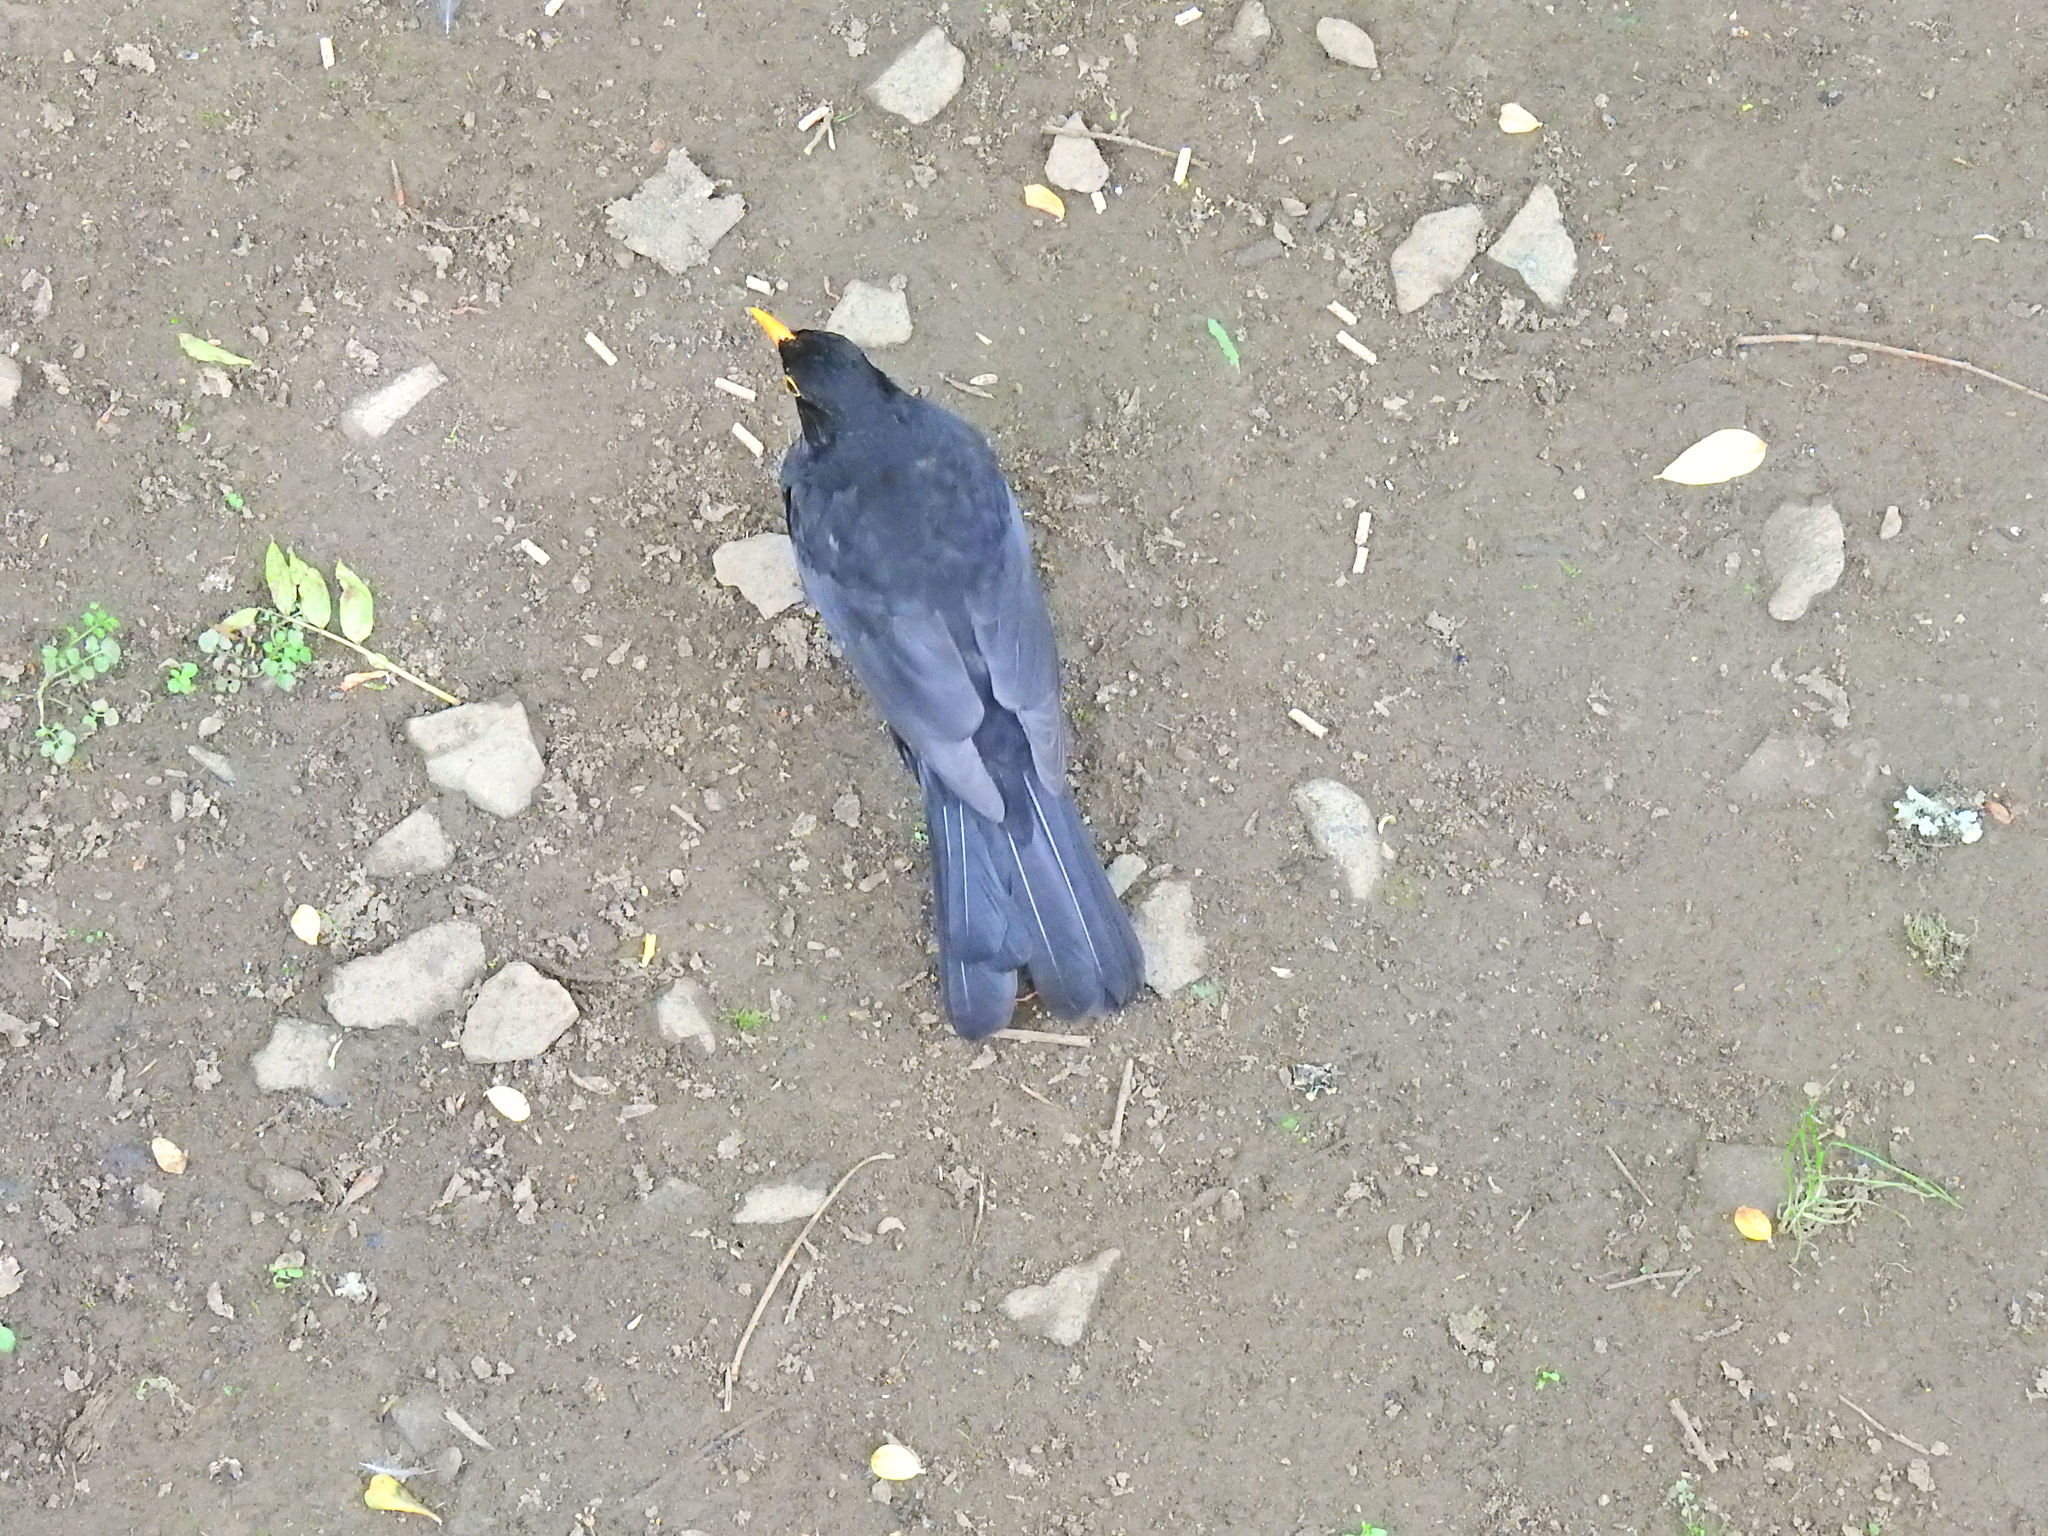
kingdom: Animalia
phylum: Chordata
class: Aves
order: Passeriformes
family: Turdidae
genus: Turdus
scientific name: Turdus merula
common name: Common blackbird
